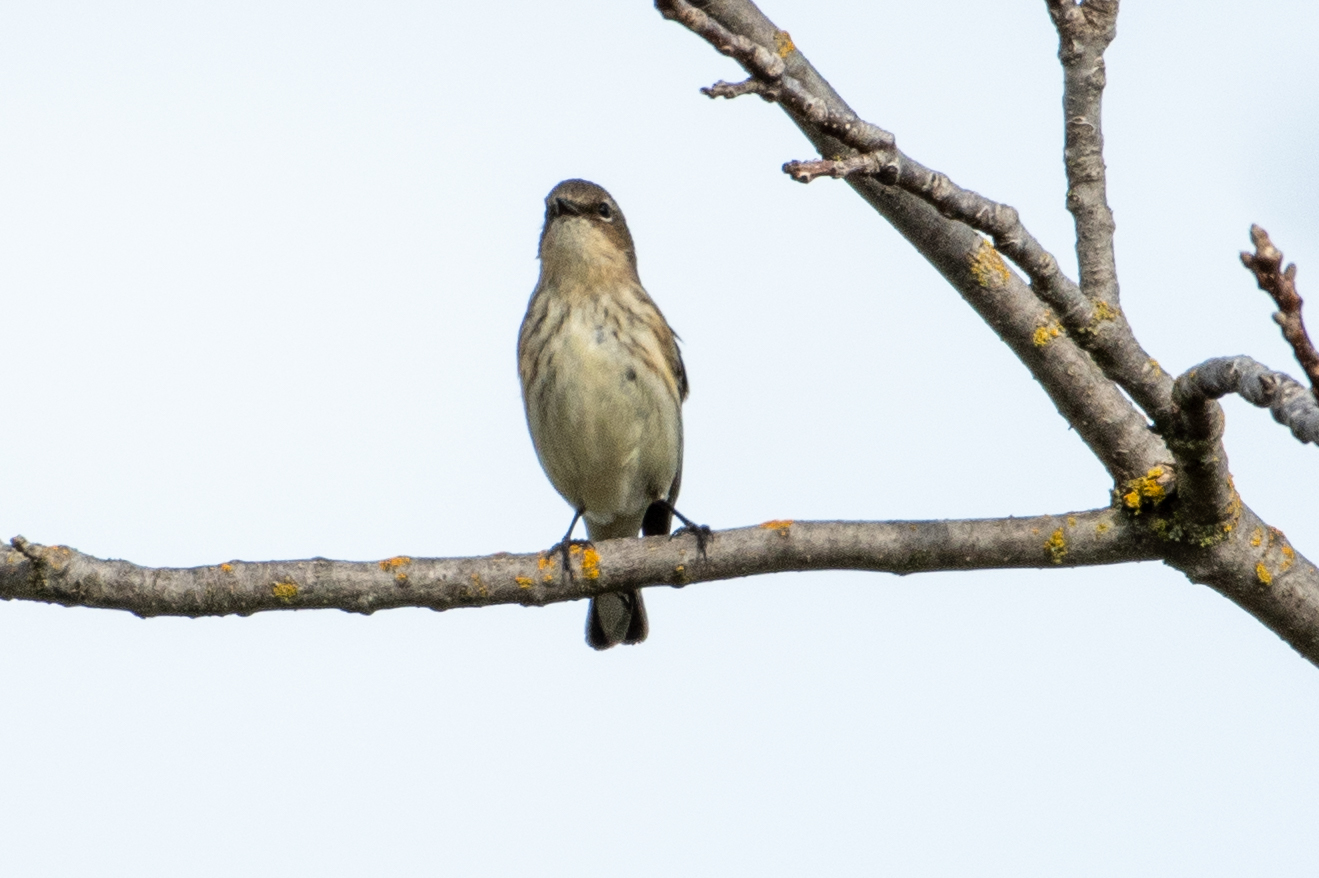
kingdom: Animalia
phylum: Chordata
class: Aves
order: Passeriformes
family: Parulidae
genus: Setophaga
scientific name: Setophaga coronata
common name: Myrtle warbler
